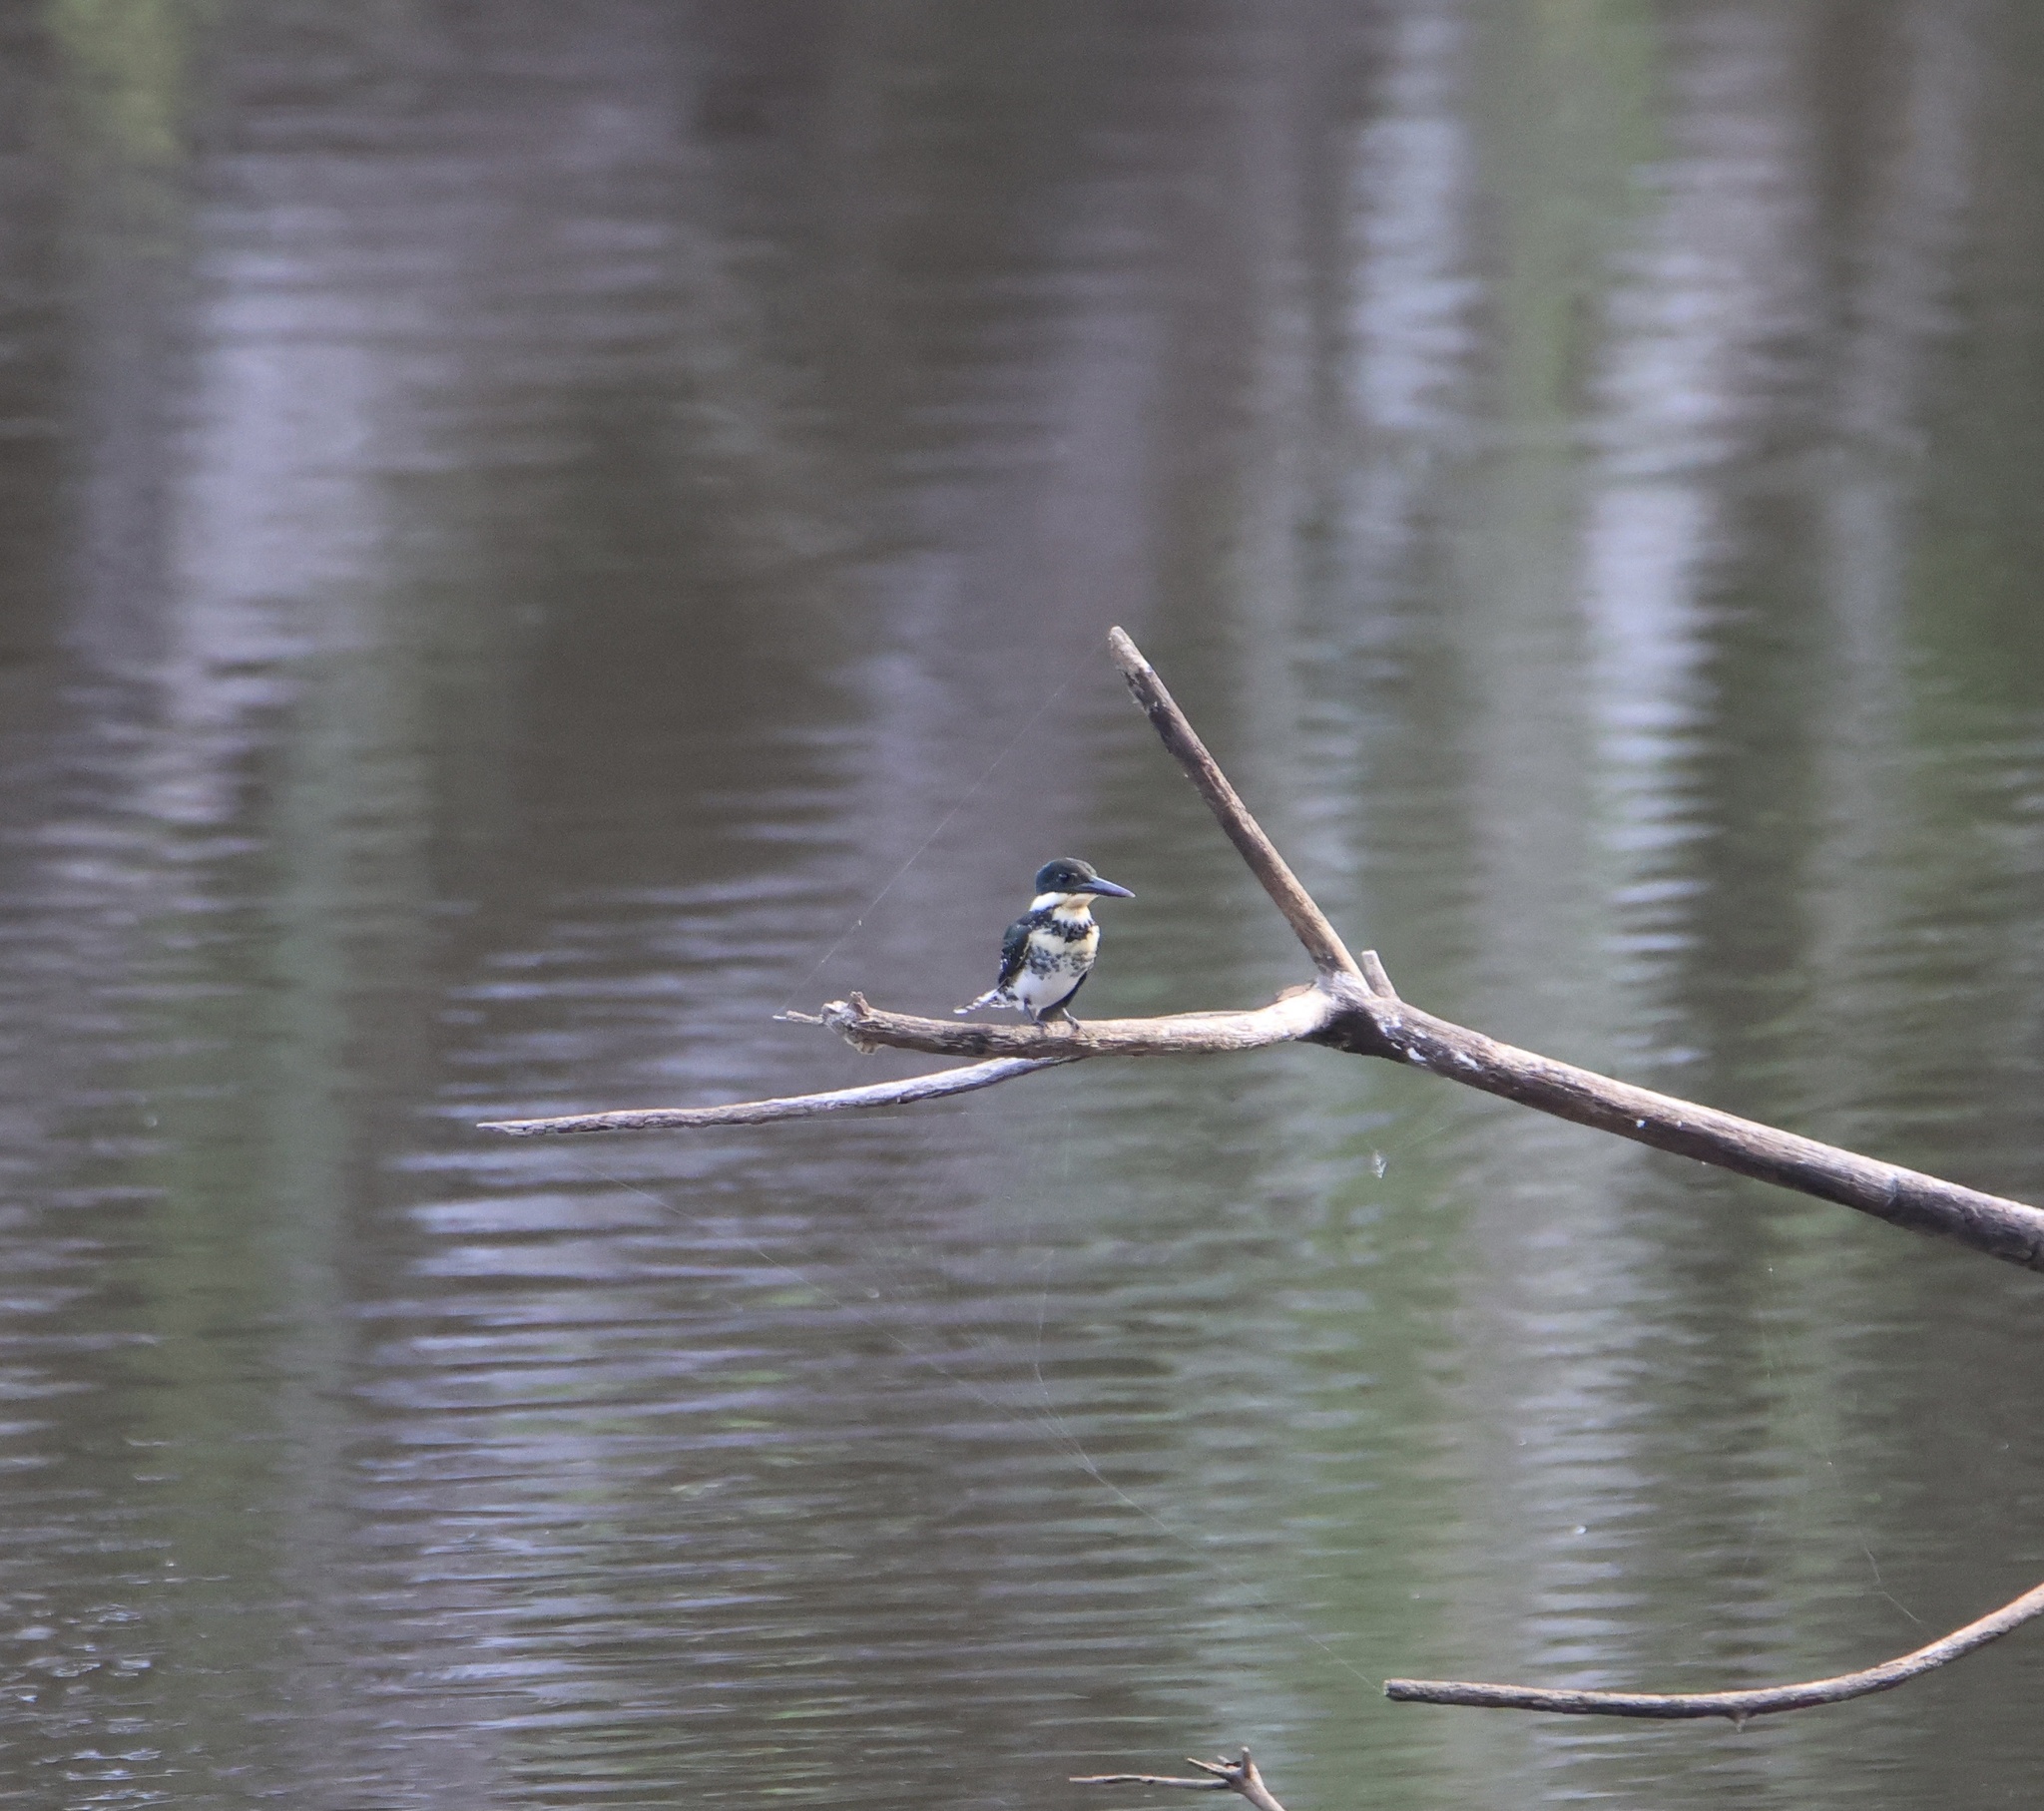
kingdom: Animalia
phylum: Chordata
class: Aves
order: Coraciiformes
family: Alcedinidae
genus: Chloroceryle
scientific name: Chloroceryle americana
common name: Green kingfisher
